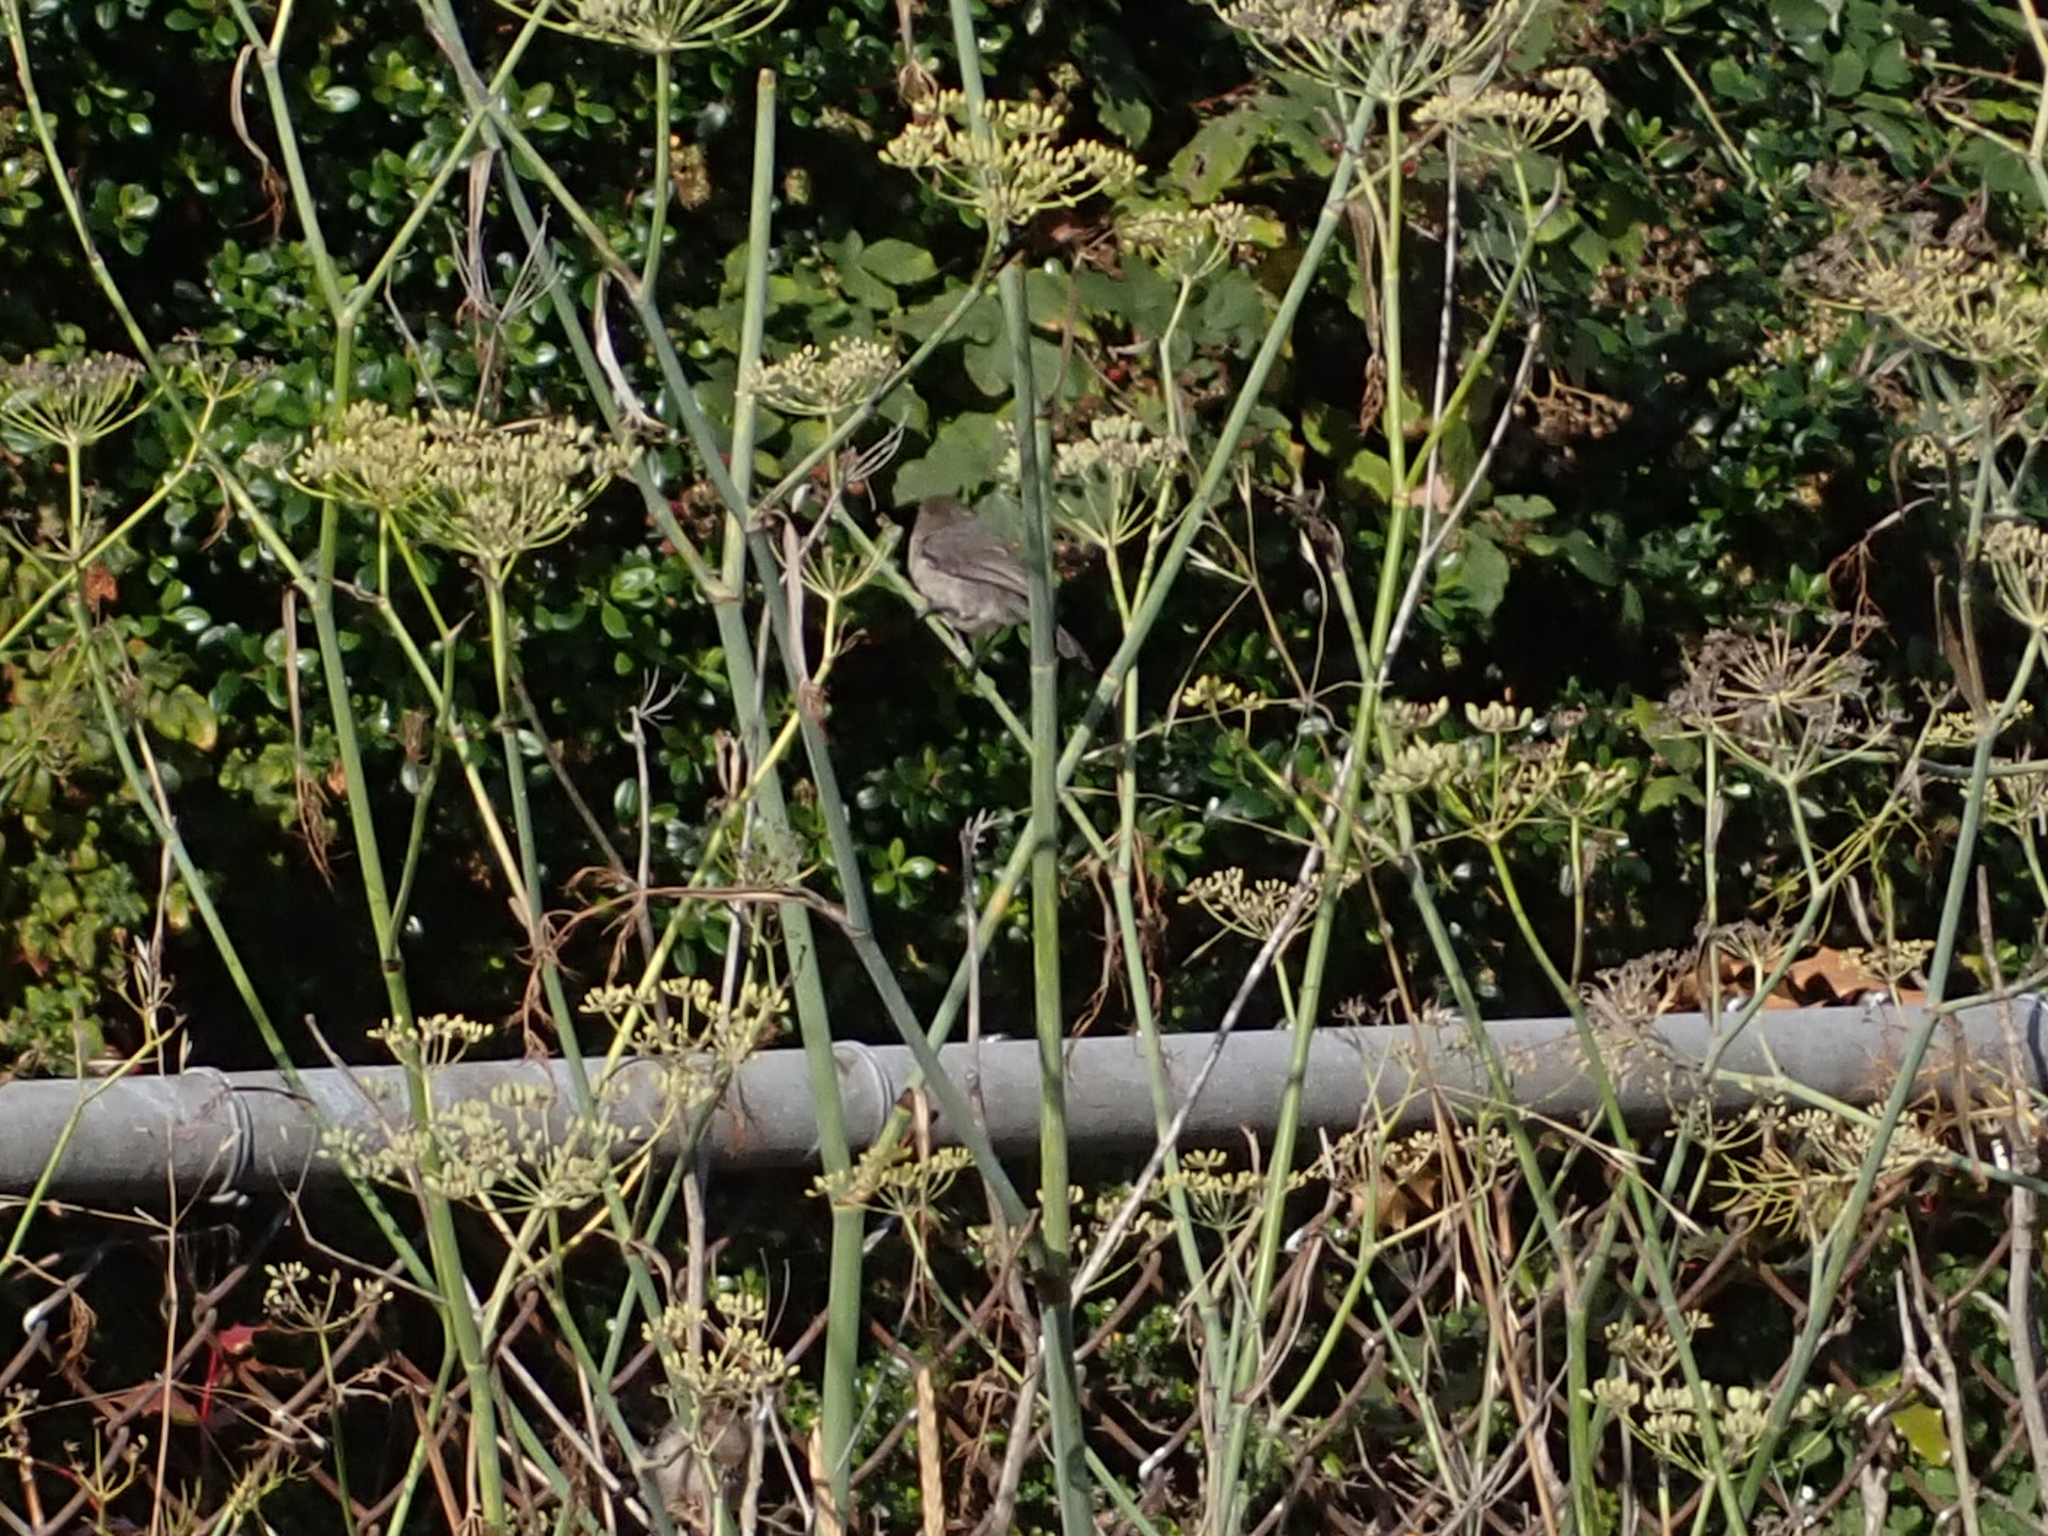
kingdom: Animalia
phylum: Chordata
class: Aves
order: Passeriformes
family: Aegithalidae
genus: Psaltriparus
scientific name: Psaltriparus minimus
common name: American bushtit
